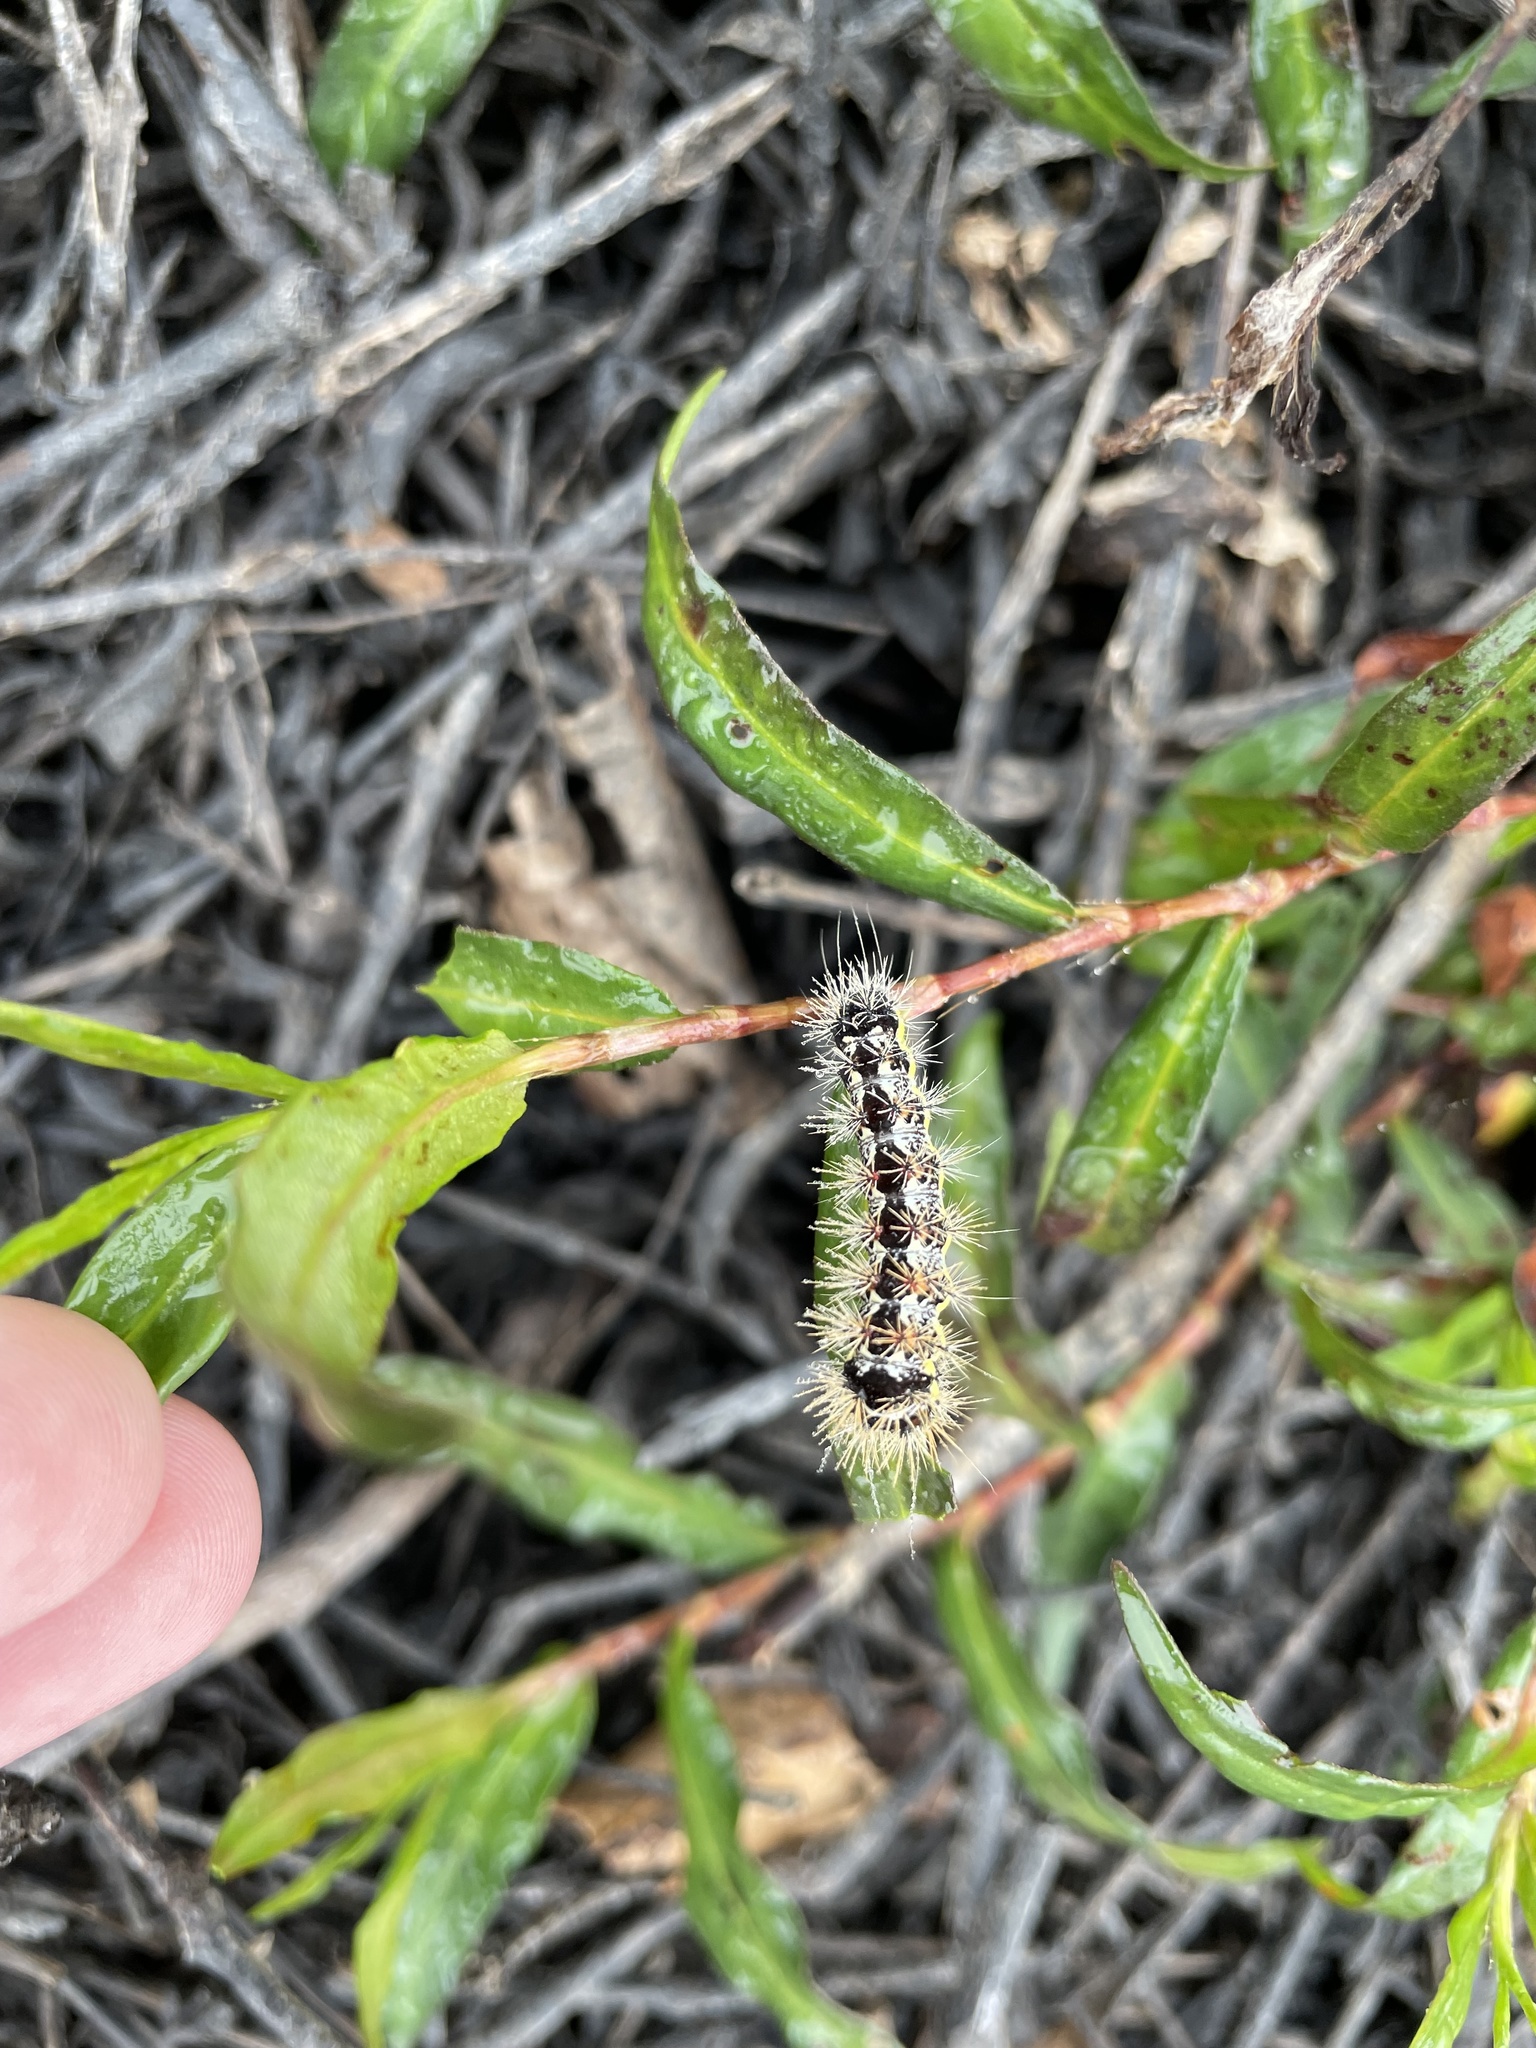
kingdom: Animalia
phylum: Arthropoda
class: Insecta
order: Lepidoptera
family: Noctuidae
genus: Acronicta
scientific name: Acronicta oblinita
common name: Smeared dagger
